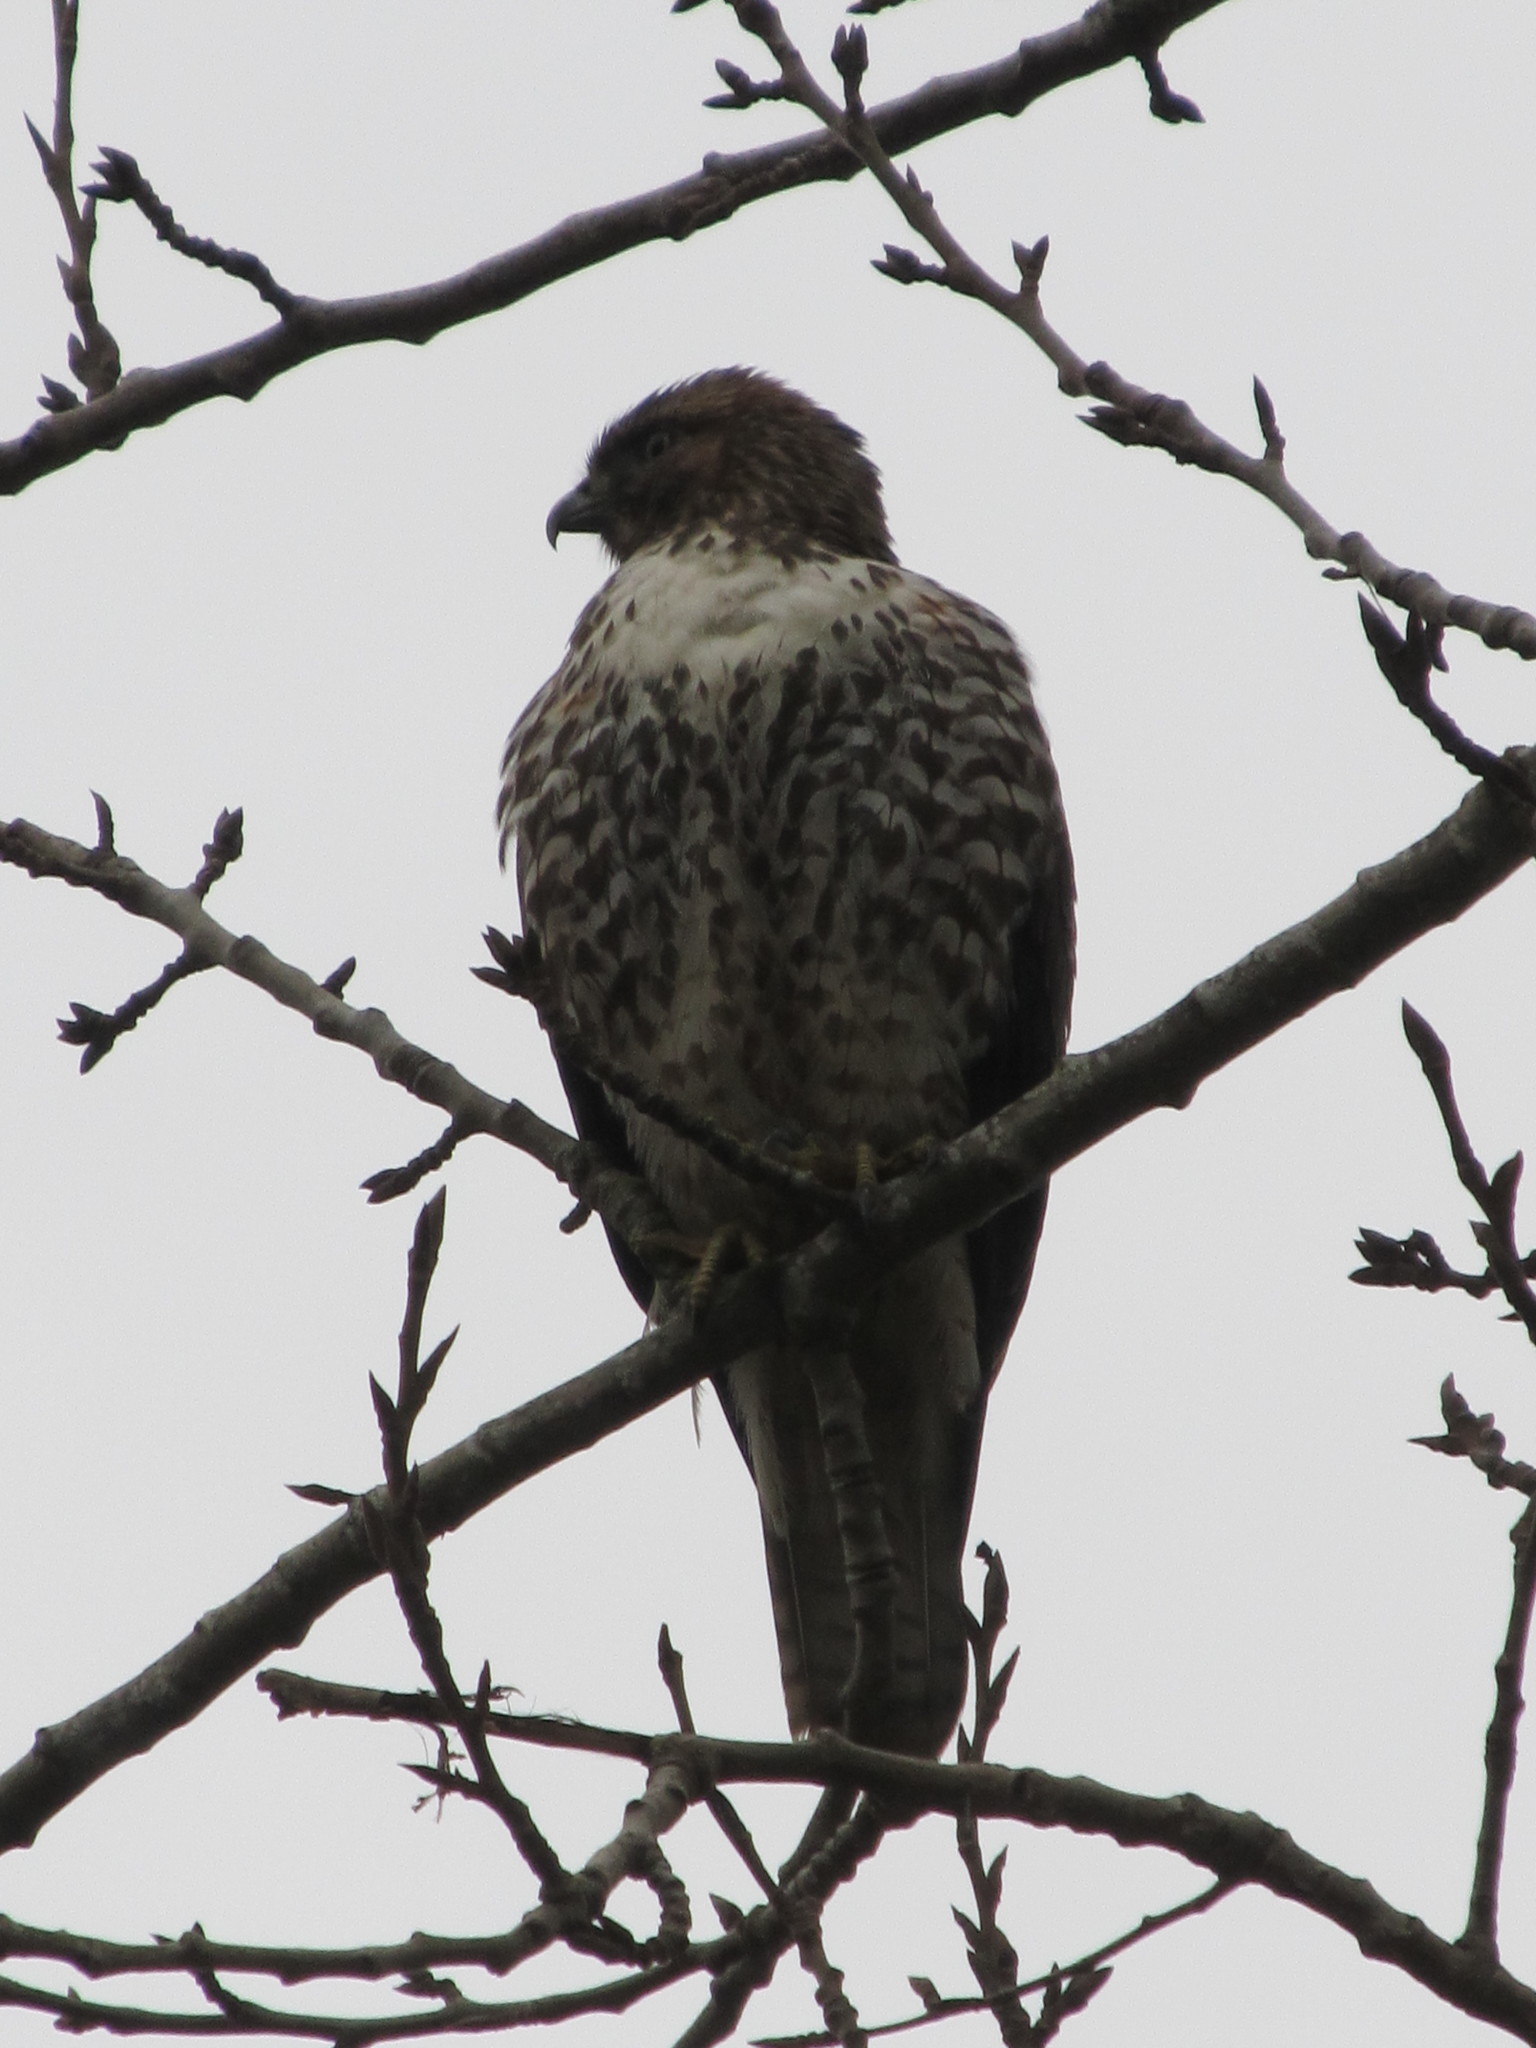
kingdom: Animalia
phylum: Chordata
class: Aves
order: Accipitriformes
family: Accipitridae
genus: Buteo
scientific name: Buteo jamaicensis
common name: Red-tailed hawk
